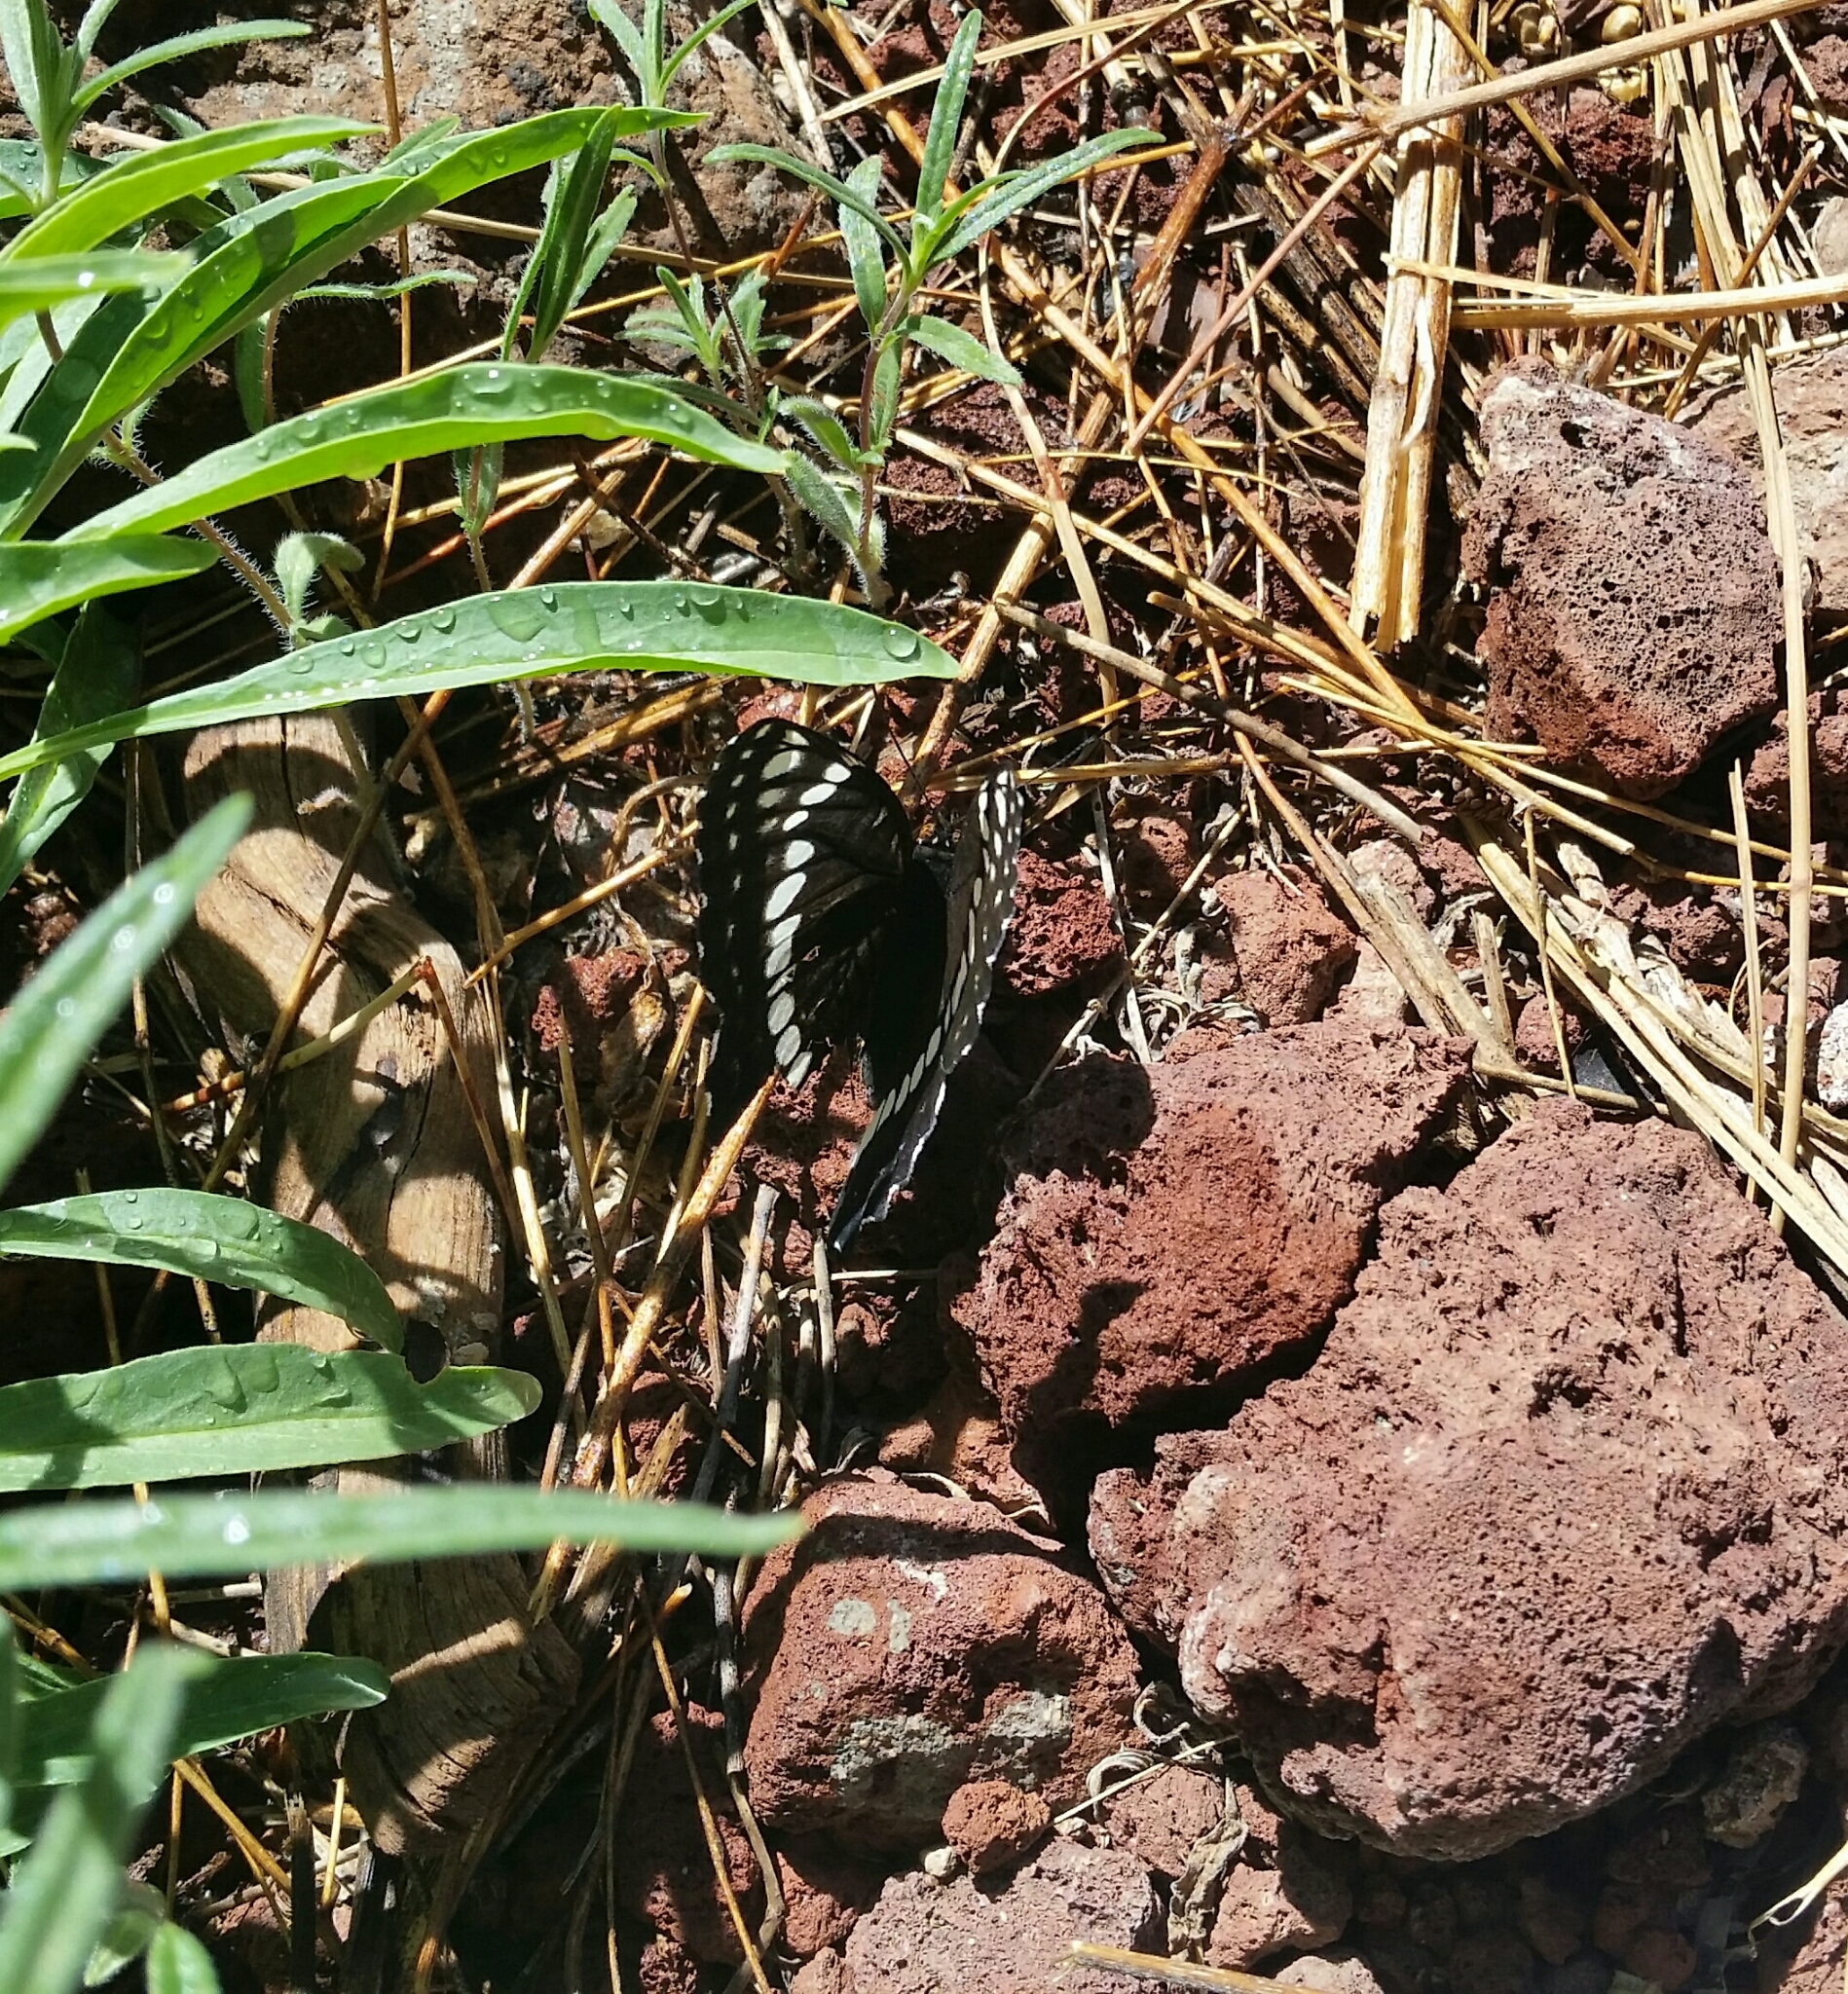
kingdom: Animalia
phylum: Arthropoda
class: Insecta
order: Lepidoptera
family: Nymphalidae
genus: Limenitis
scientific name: Limenitis weidemeyerii
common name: Weidemeyer's admiral
